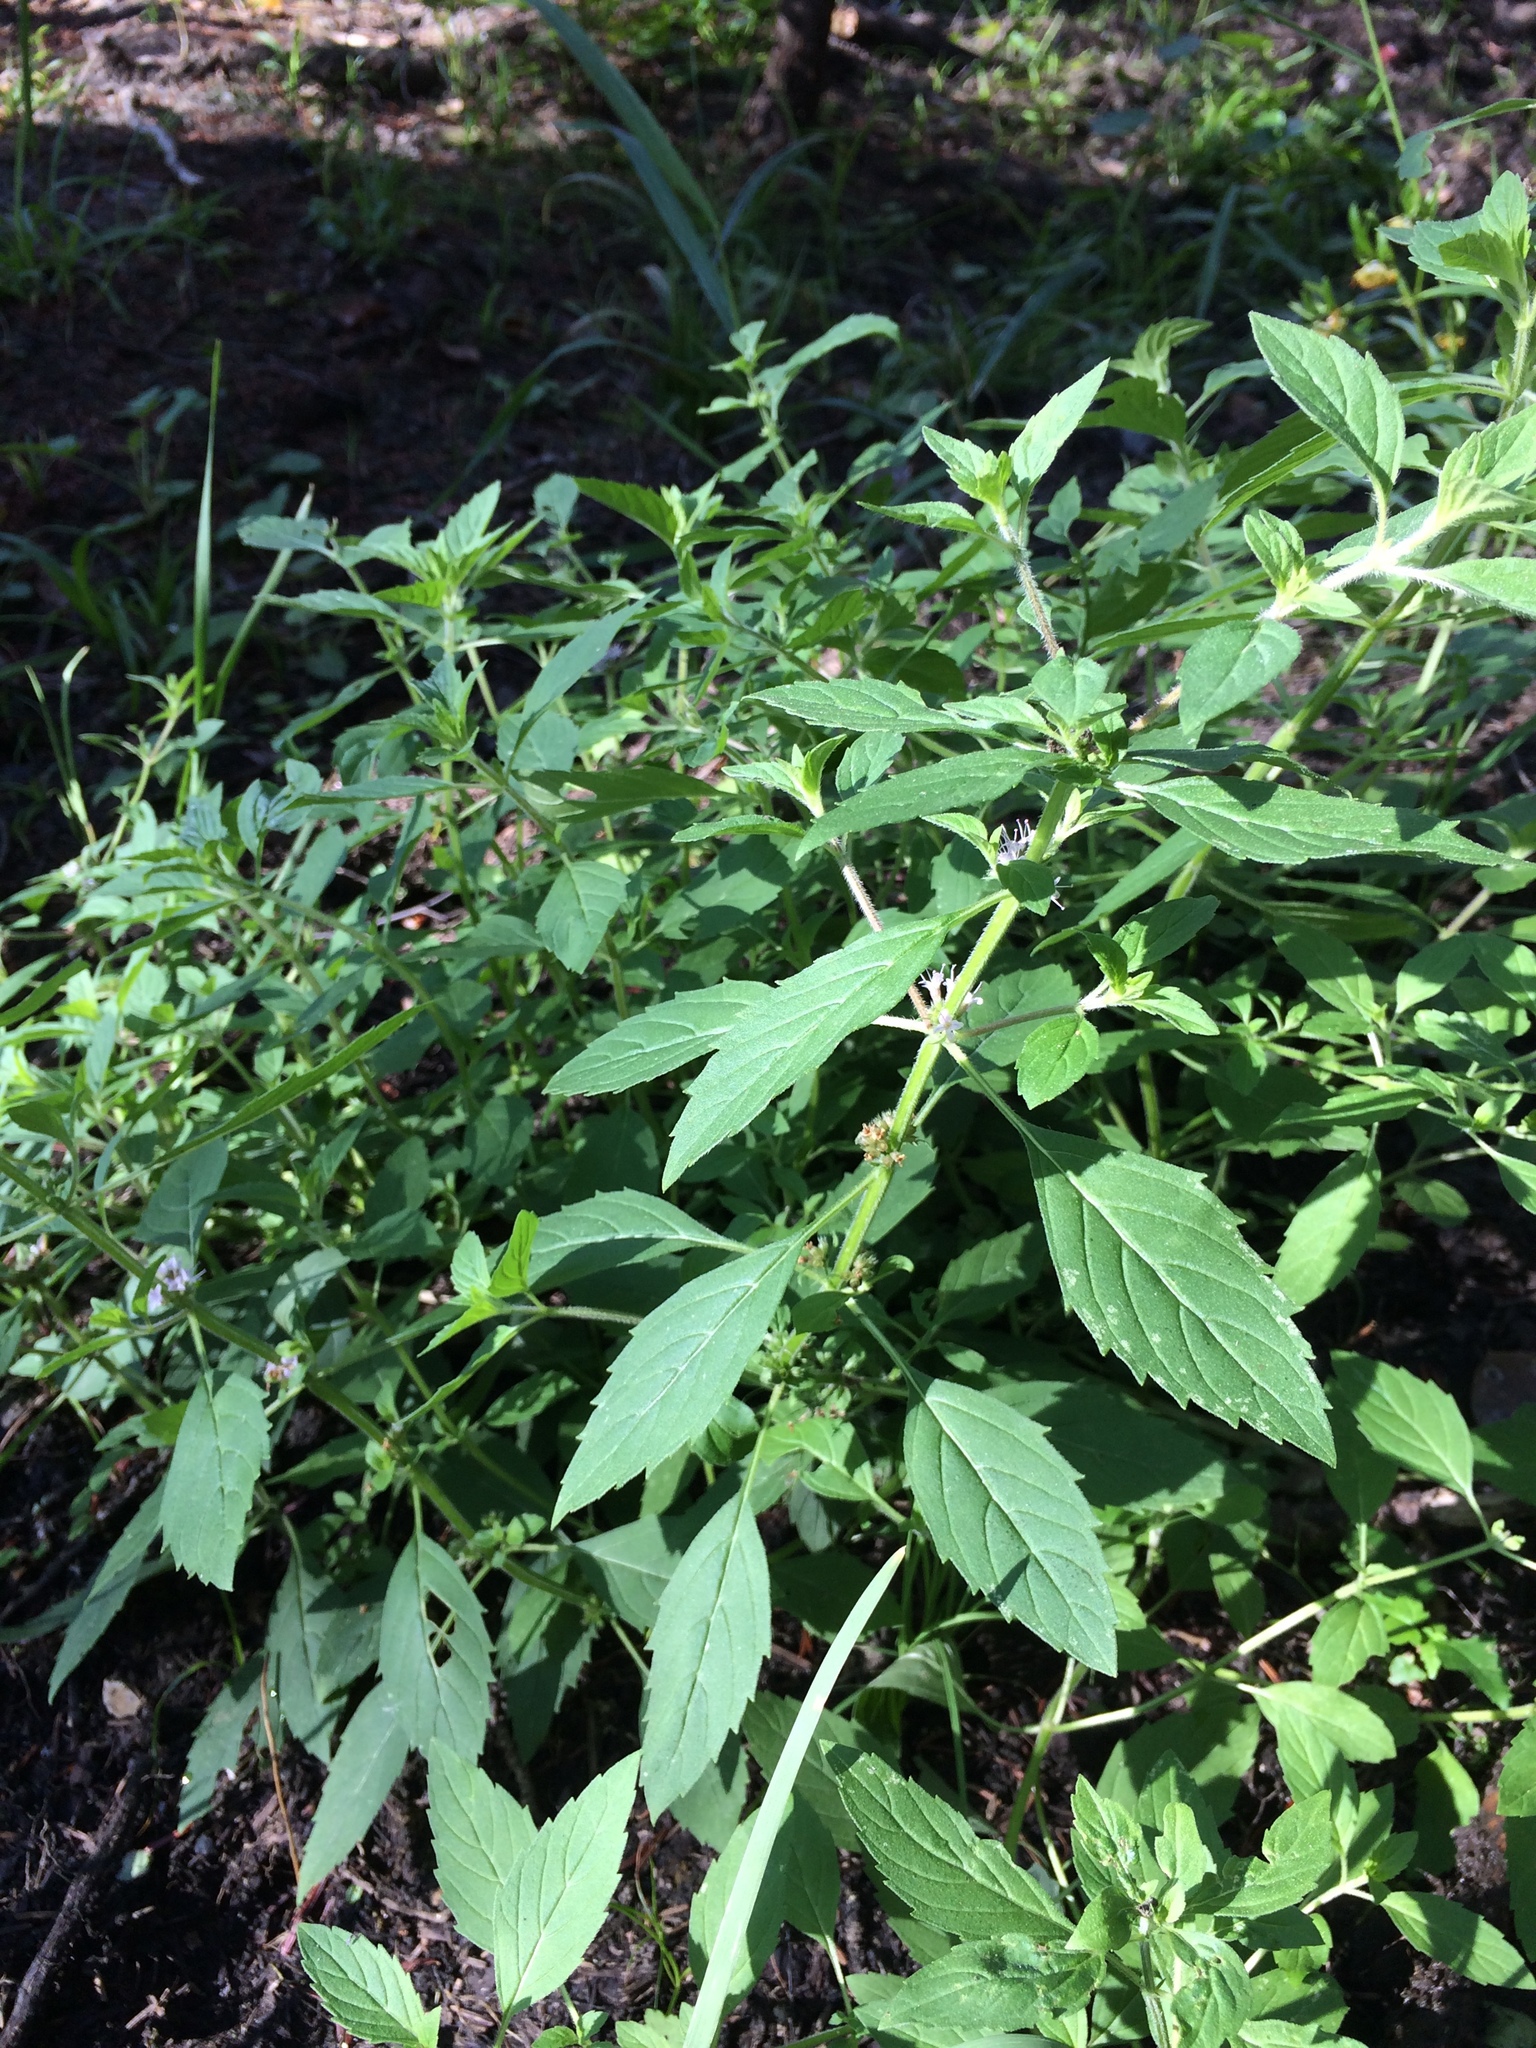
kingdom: Plantae
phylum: Tracheophyta
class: Magnoliopsida
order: Lamiales
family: Lamiaceae
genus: Mentha
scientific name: Mentha canadensis
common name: American corn mint
